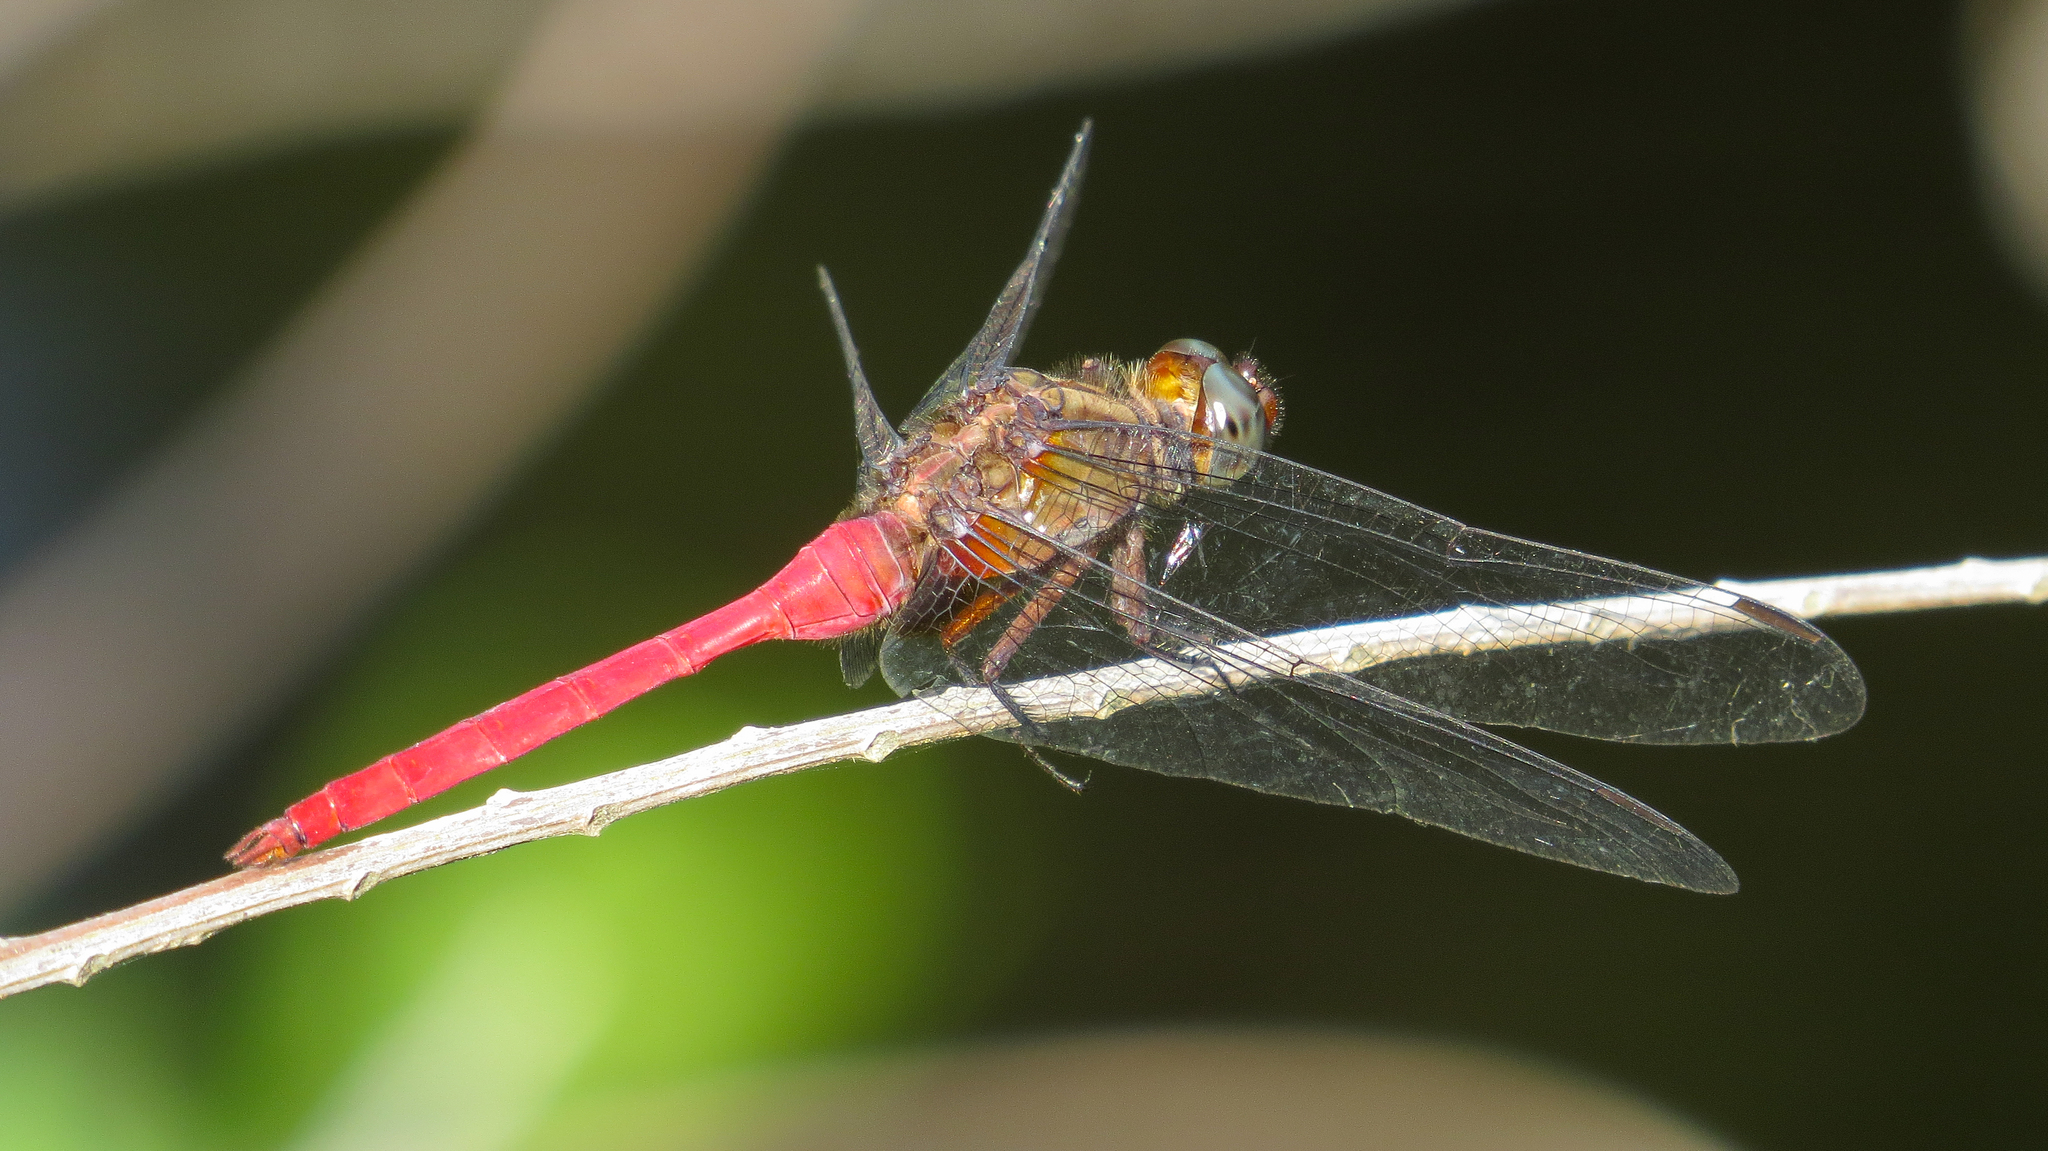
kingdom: Animalia
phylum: Arthropoda
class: Insecta
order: Odonata
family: Libellulidae
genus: Orthetrum
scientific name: Orthetrum villosovittatum
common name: Firery skimmer
